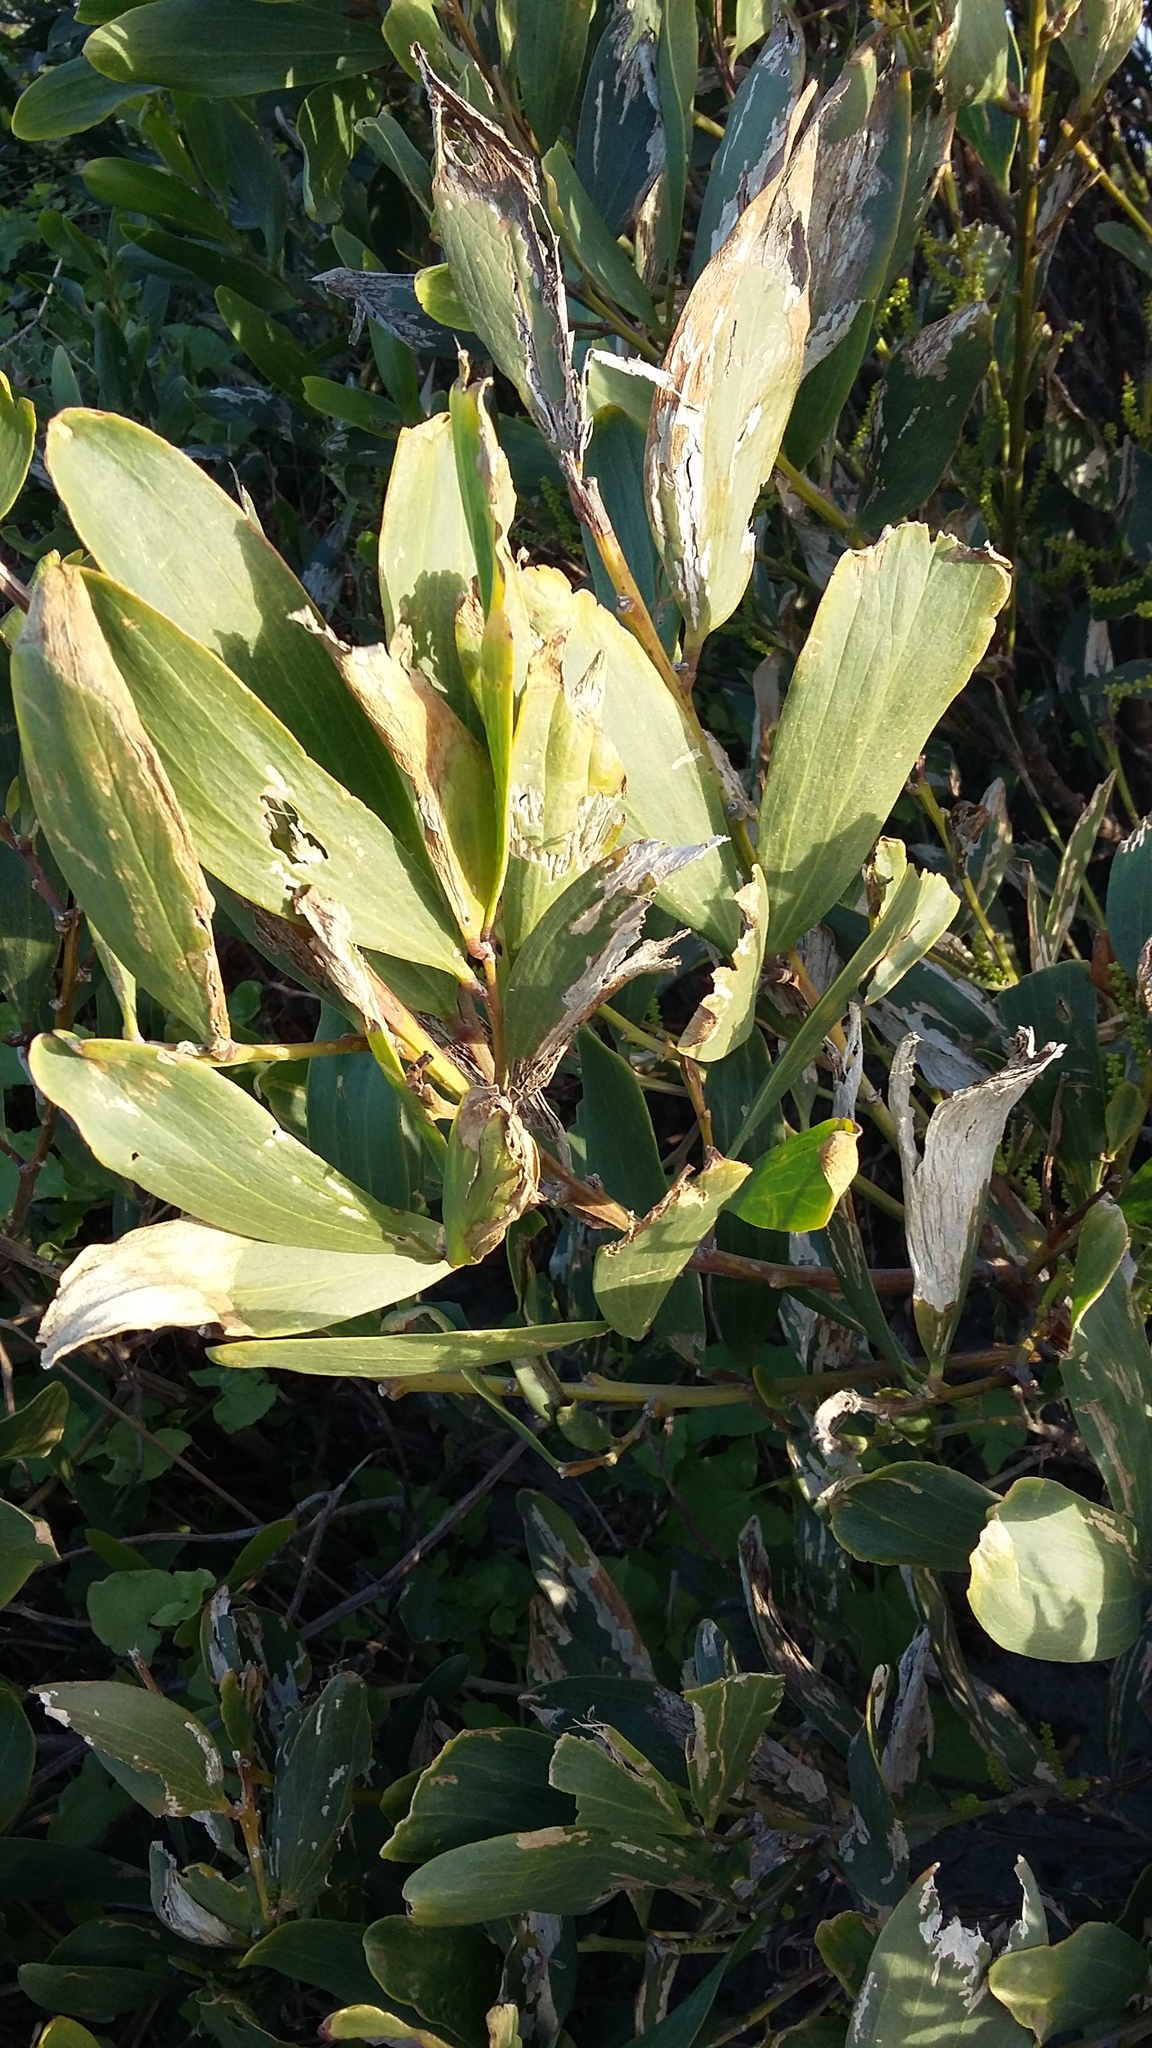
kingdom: Plantae
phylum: Tracheophyta
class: Magnoliopsida
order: Fabales
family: Fabaceae
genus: Acacia
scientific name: Acacia longifolia
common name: Sydney golden wattle
